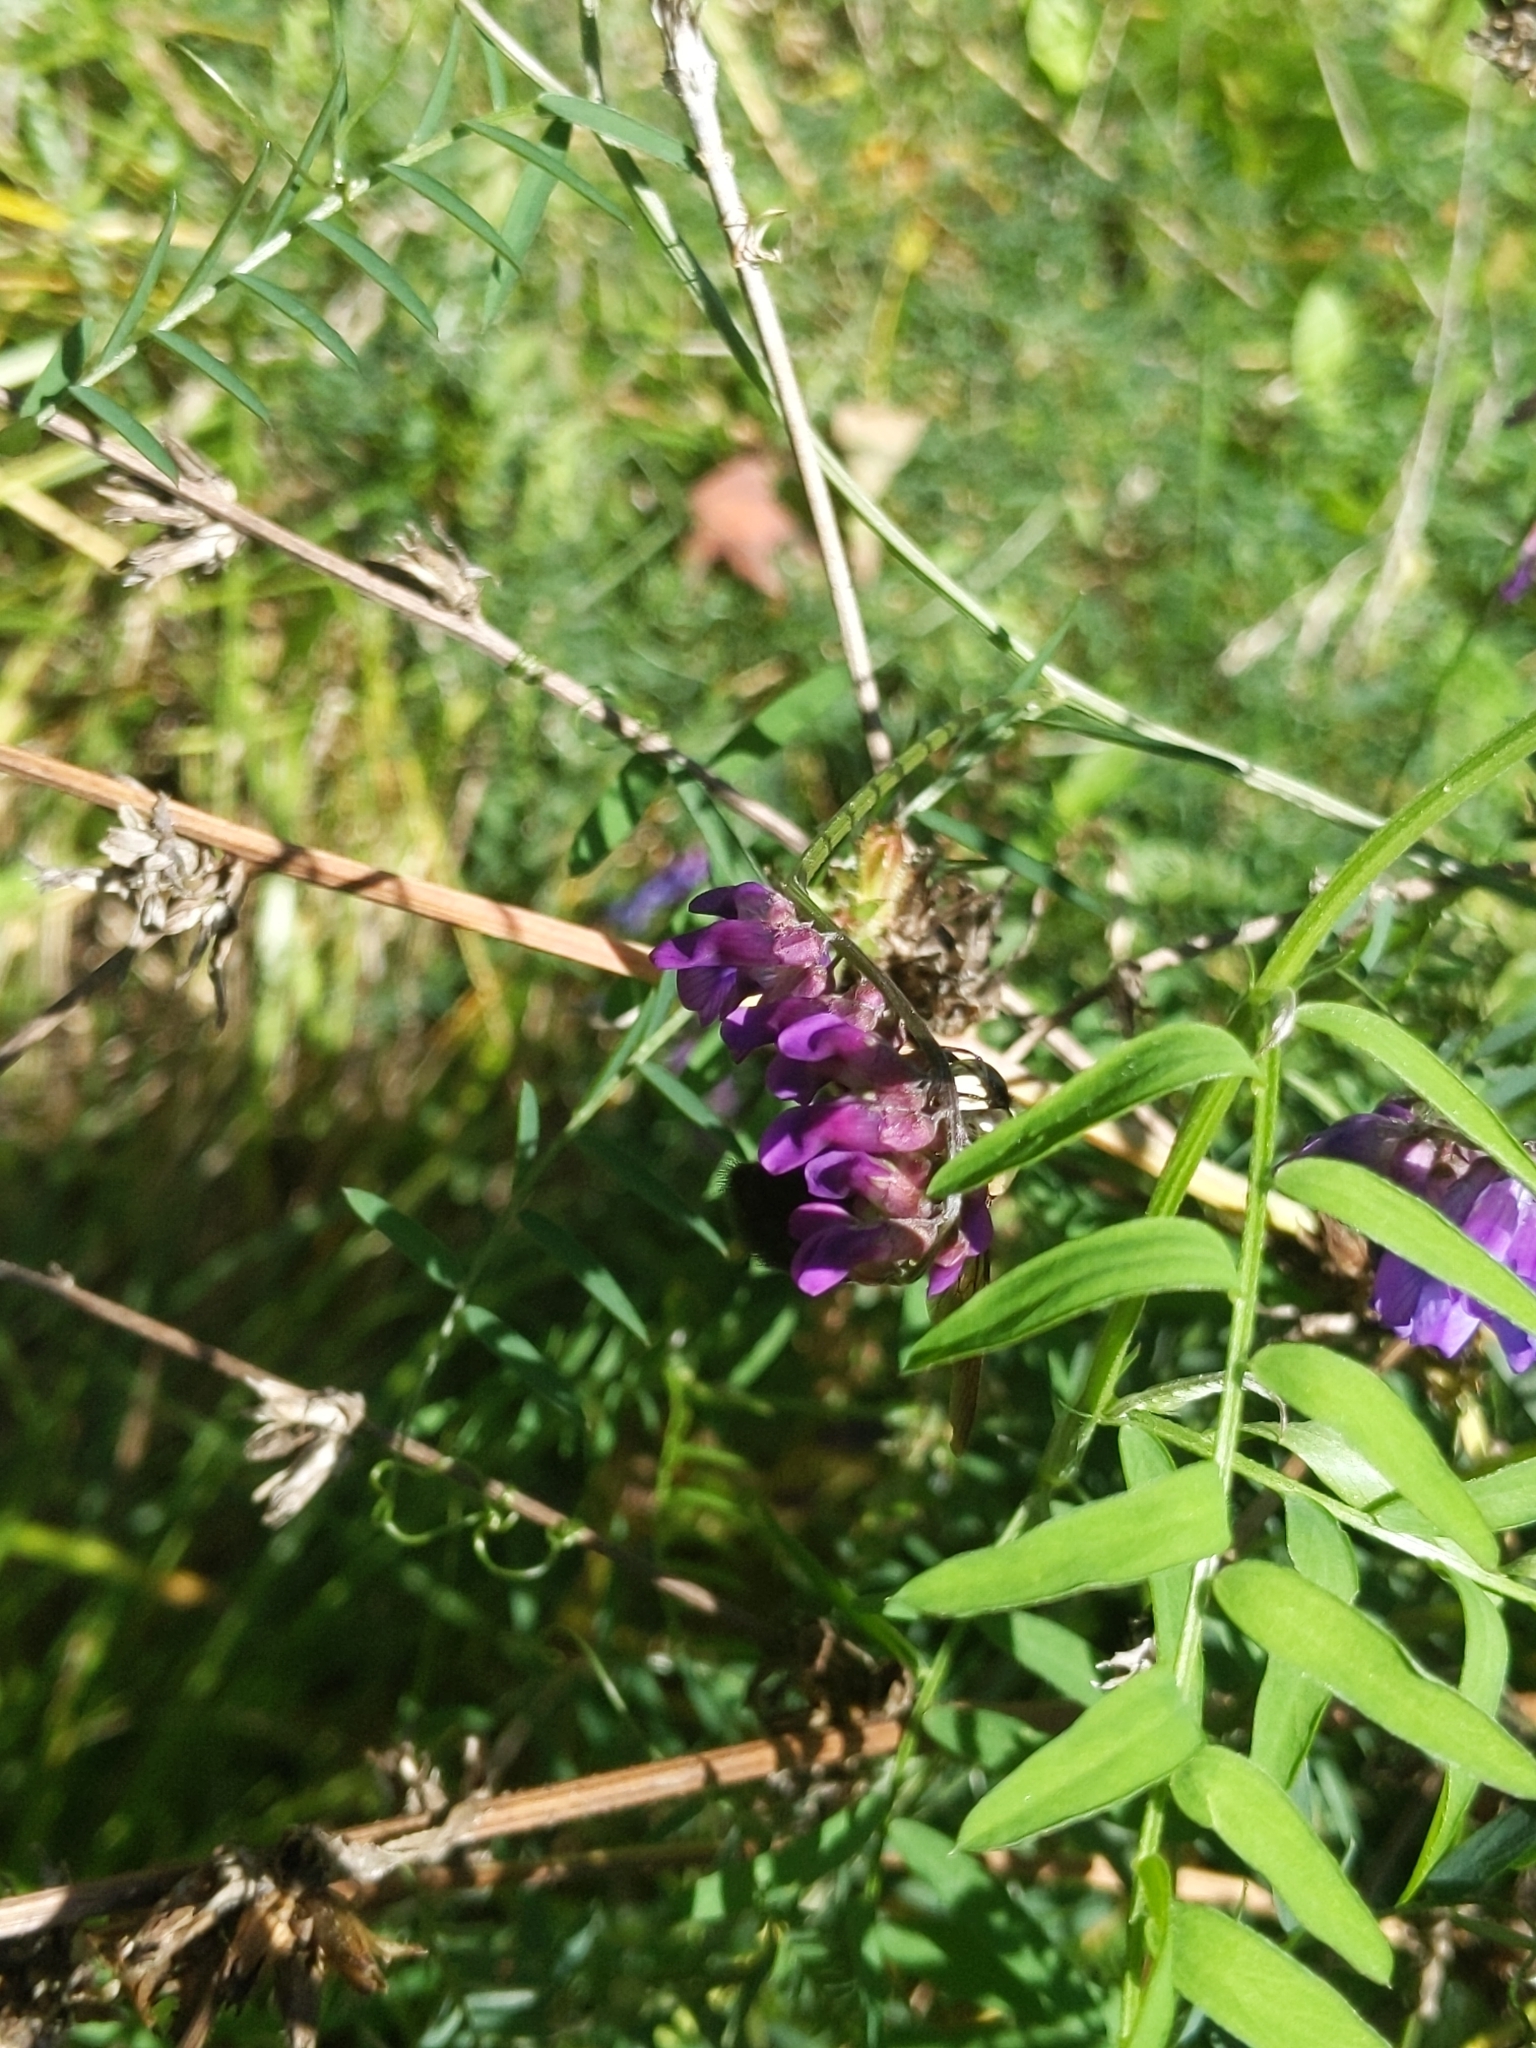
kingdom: Plantae
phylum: Tracheophyta
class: Magnoliopsida
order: Fabales
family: Fabaceae
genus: Vicia
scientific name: Vicia cracca
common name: Bird vetch
